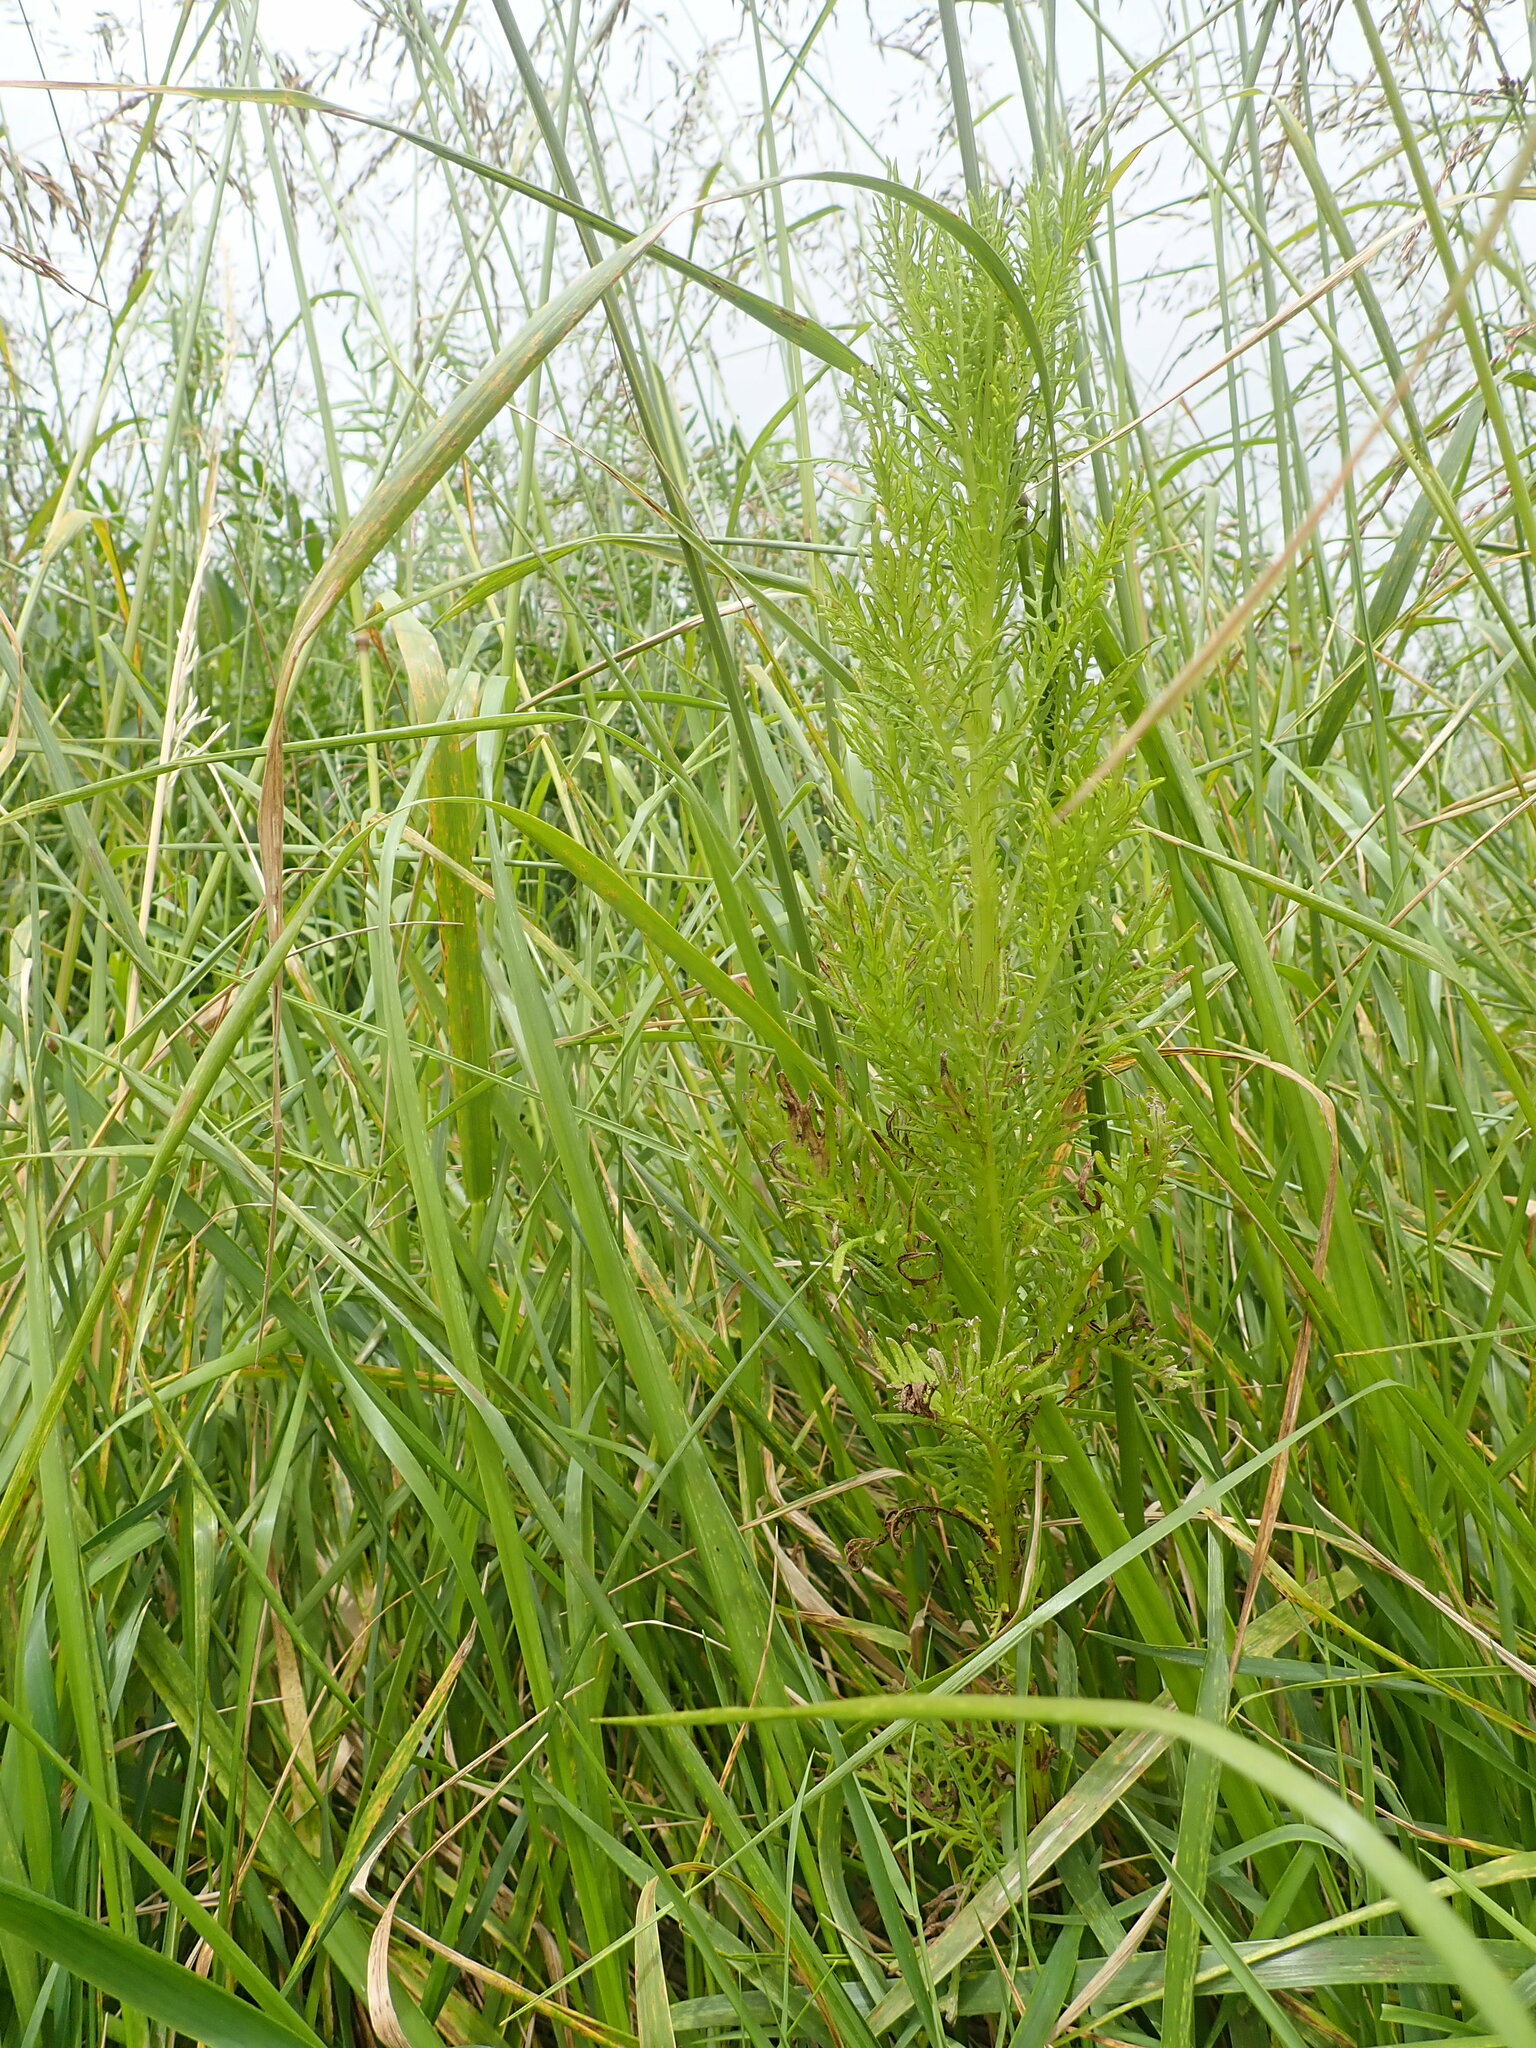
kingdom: Plantae
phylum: Tracheophyta
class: Magnoliopsida
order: Asterales
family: Asteraceae
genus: Senecio
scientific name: Senecio bipinnatisectus
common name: Australian fireweed
